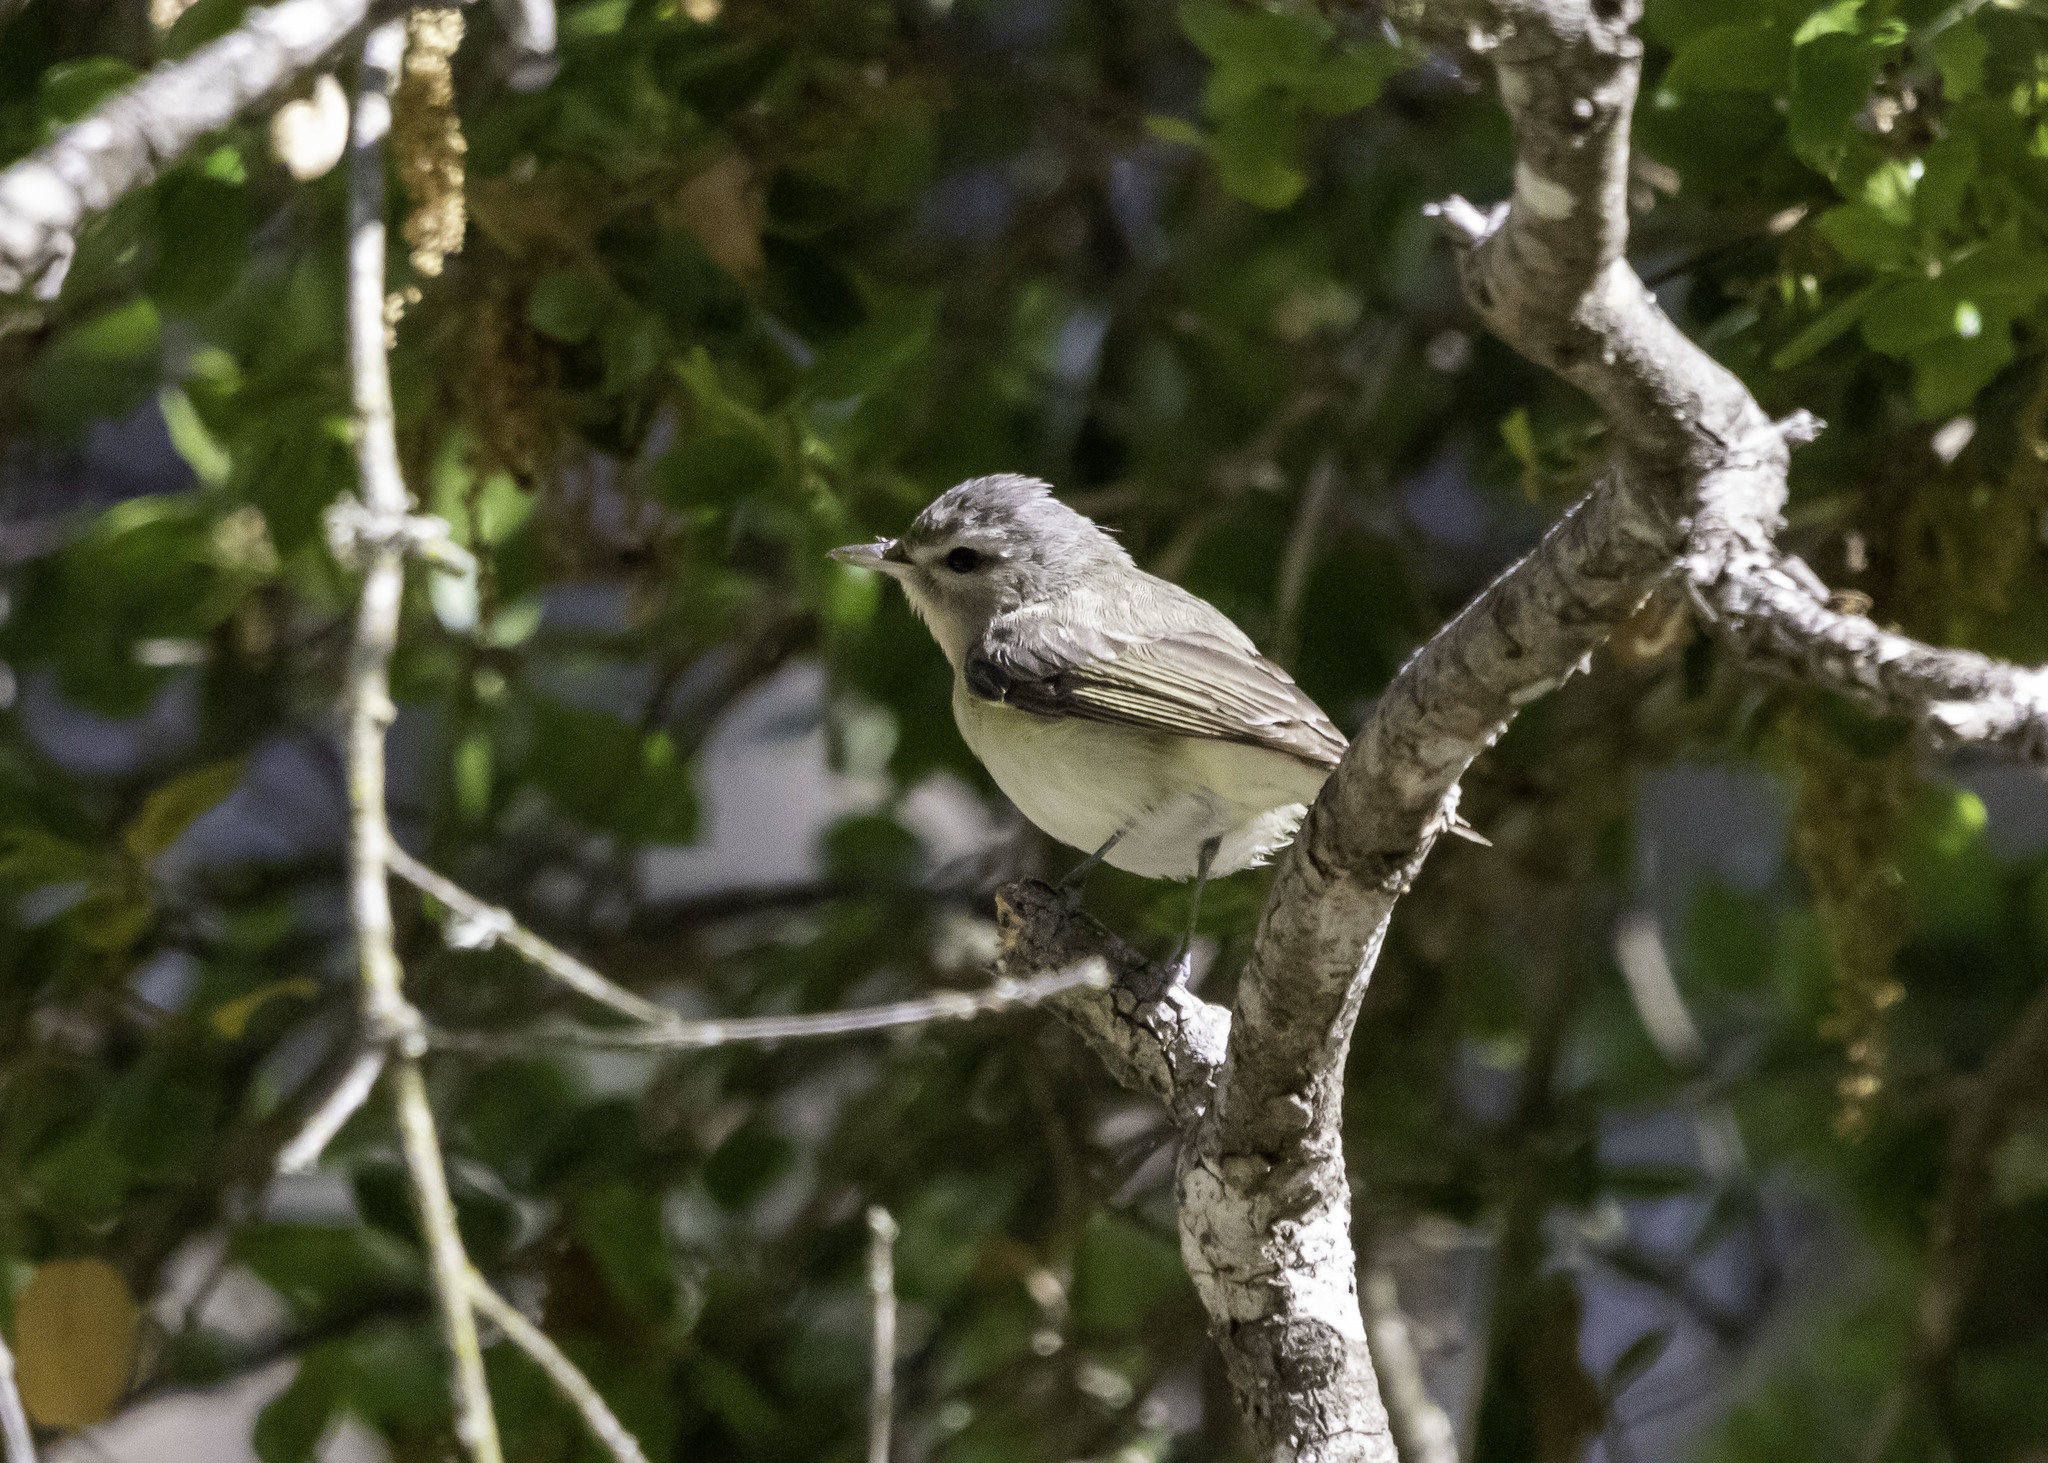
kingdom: Animalia
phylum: Chordata
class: Aves
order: Passeriformes
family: Vireonidae
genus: Vireo
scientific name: Vireo gilvus
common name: Warbling vireo
